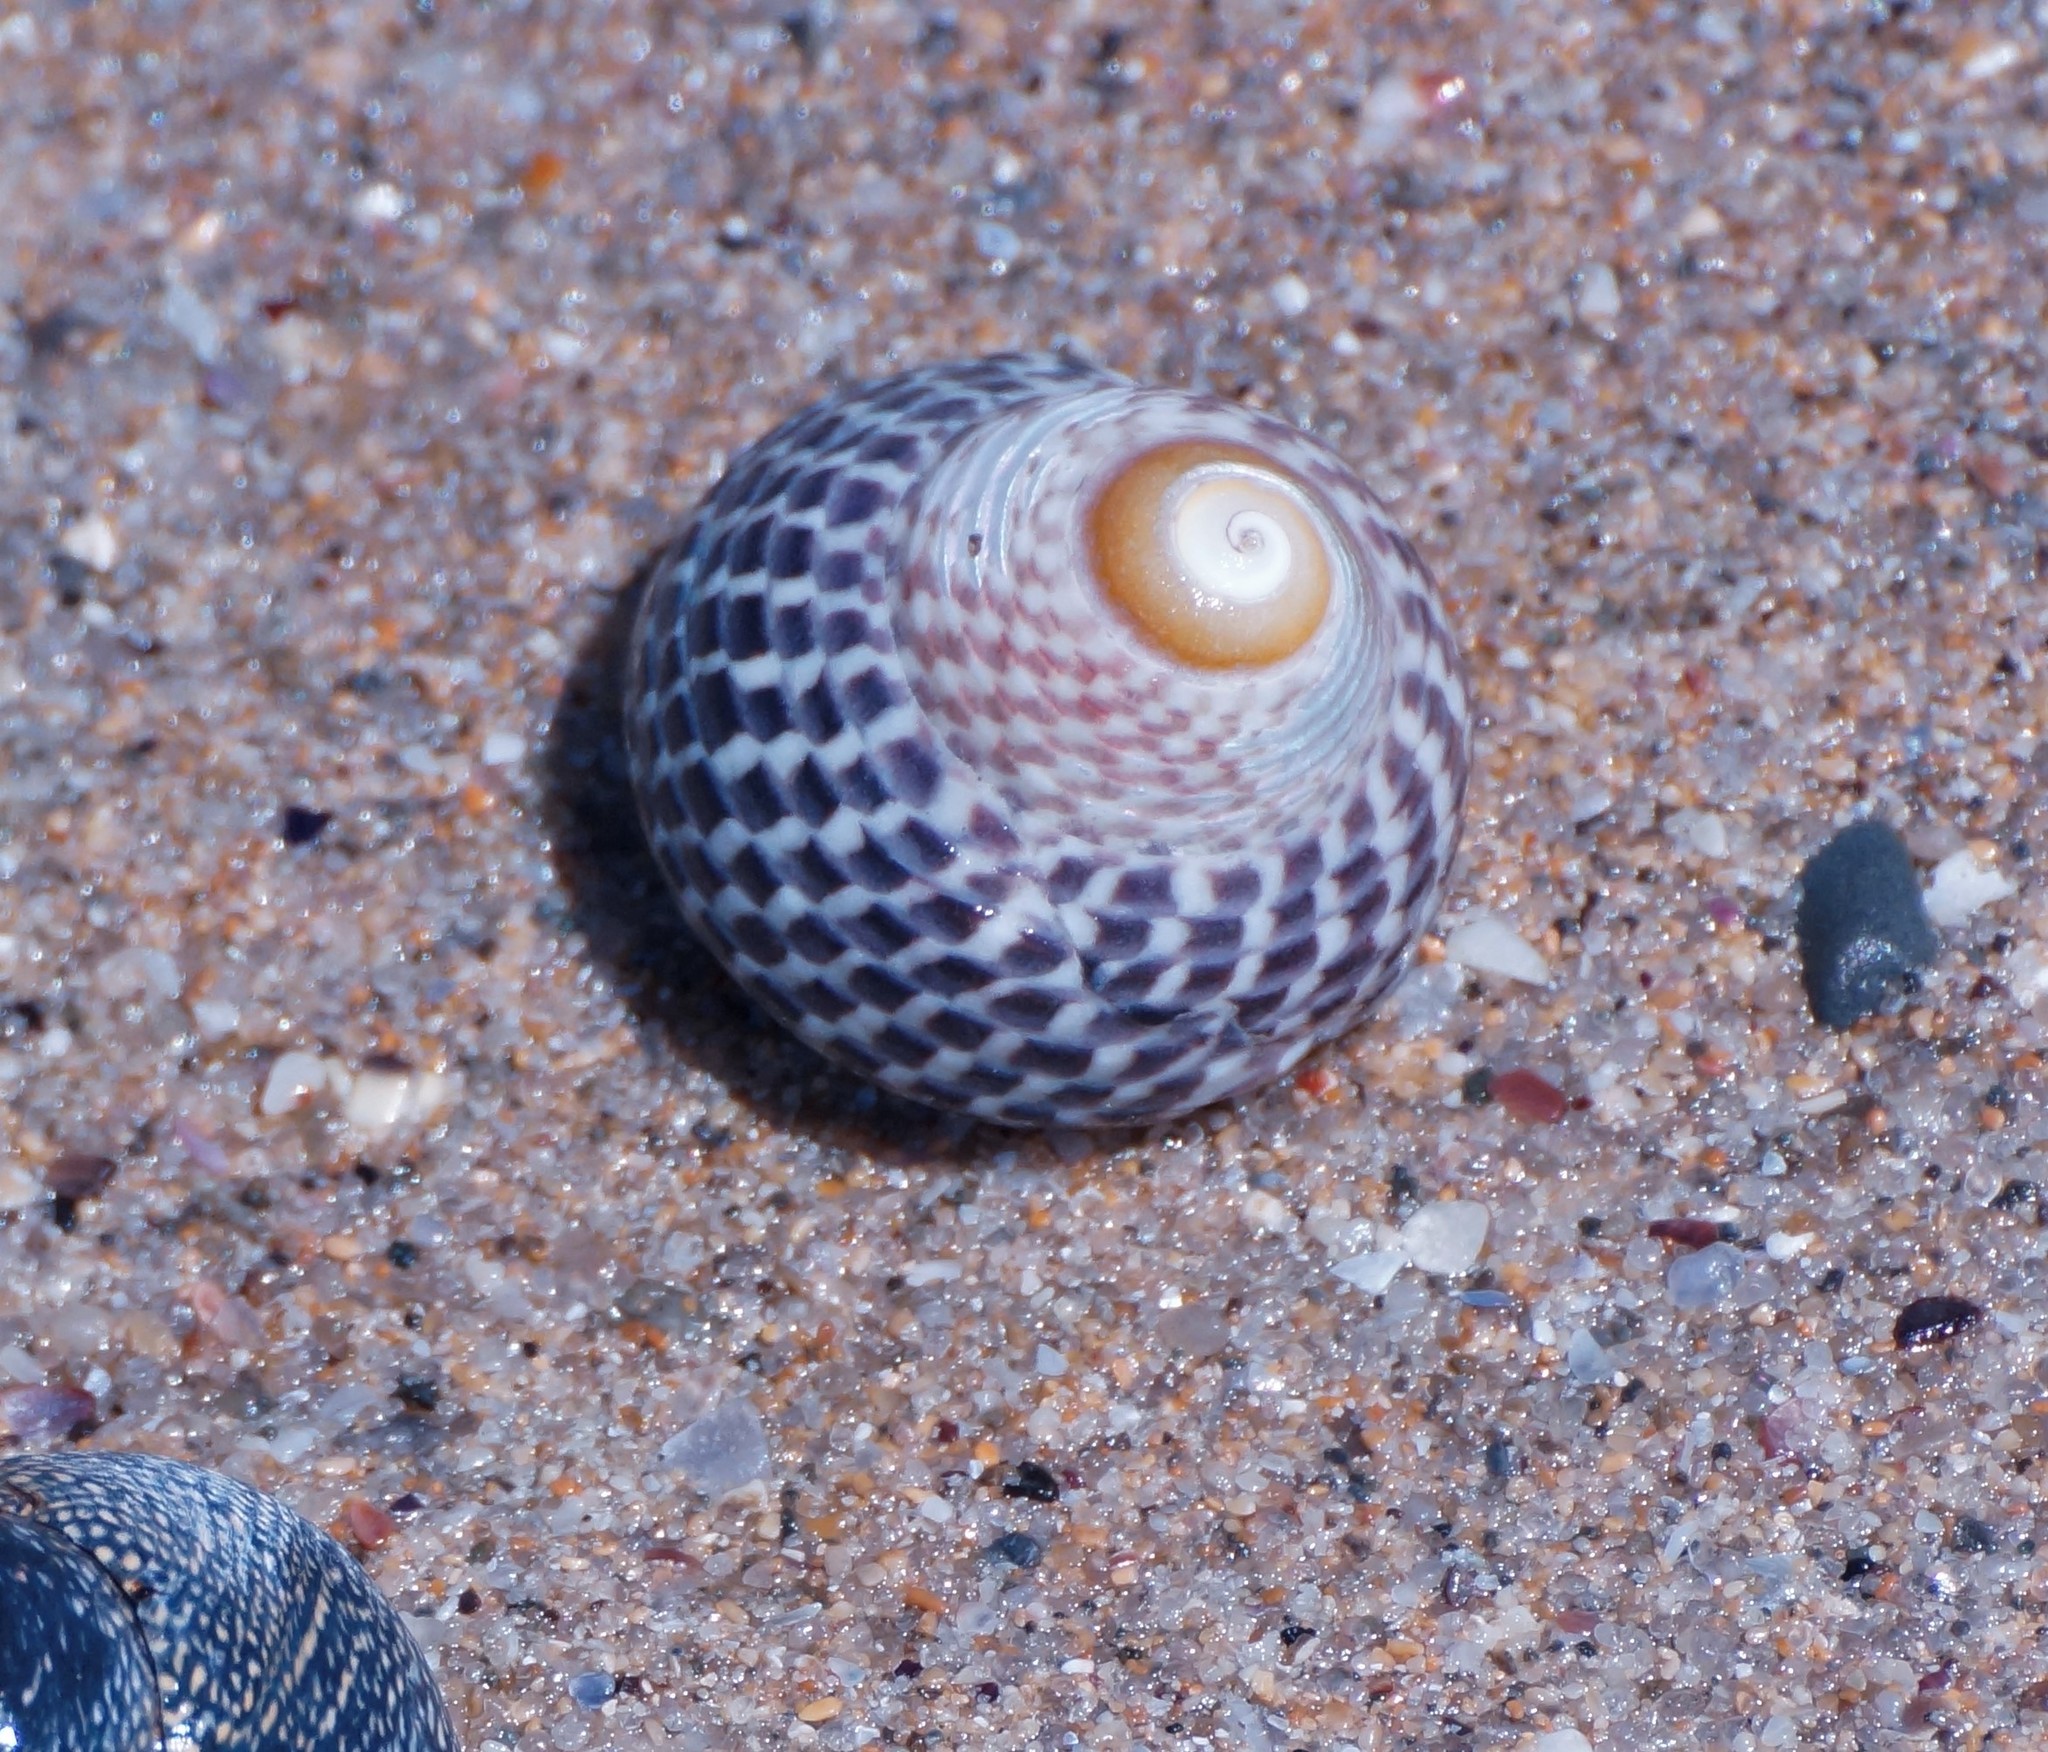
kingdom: Animalia
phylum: Mollusca
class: Gastropoda
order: Trochida
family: Trochidae
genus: Chlorodiloma
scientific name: Chlorodiloma adelaidae
